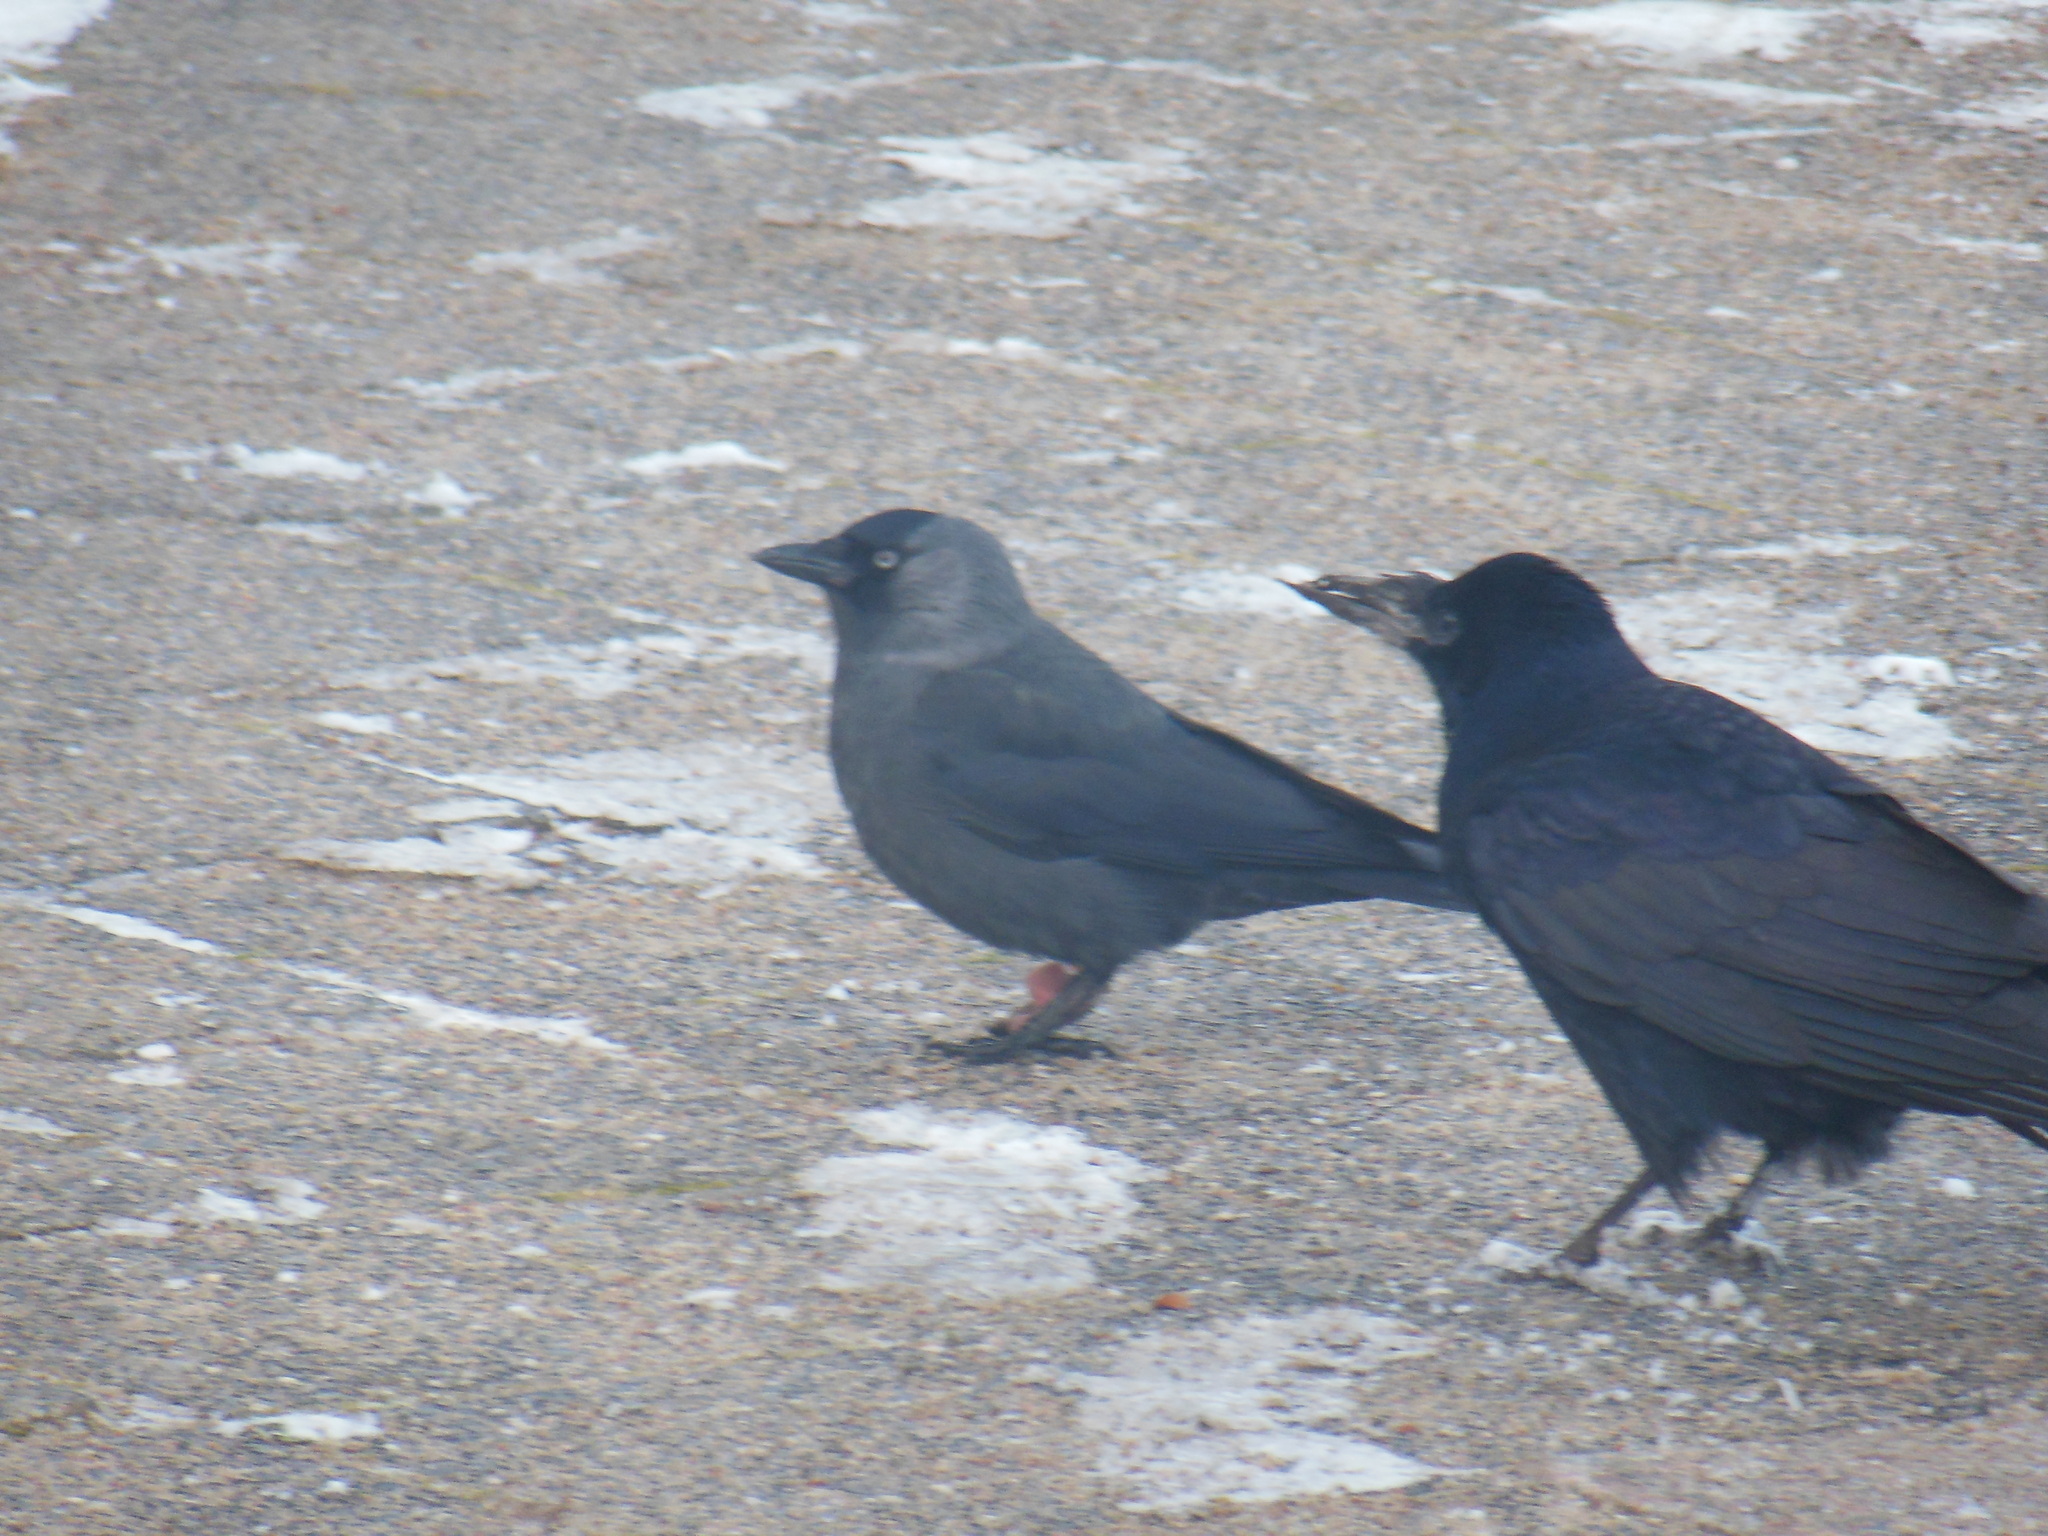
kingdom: Animalia
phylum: Chordata
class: Aves
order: Passeriformes
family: Corvidae
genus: Corvus
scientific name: Corvus frugilegus
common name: Rook
